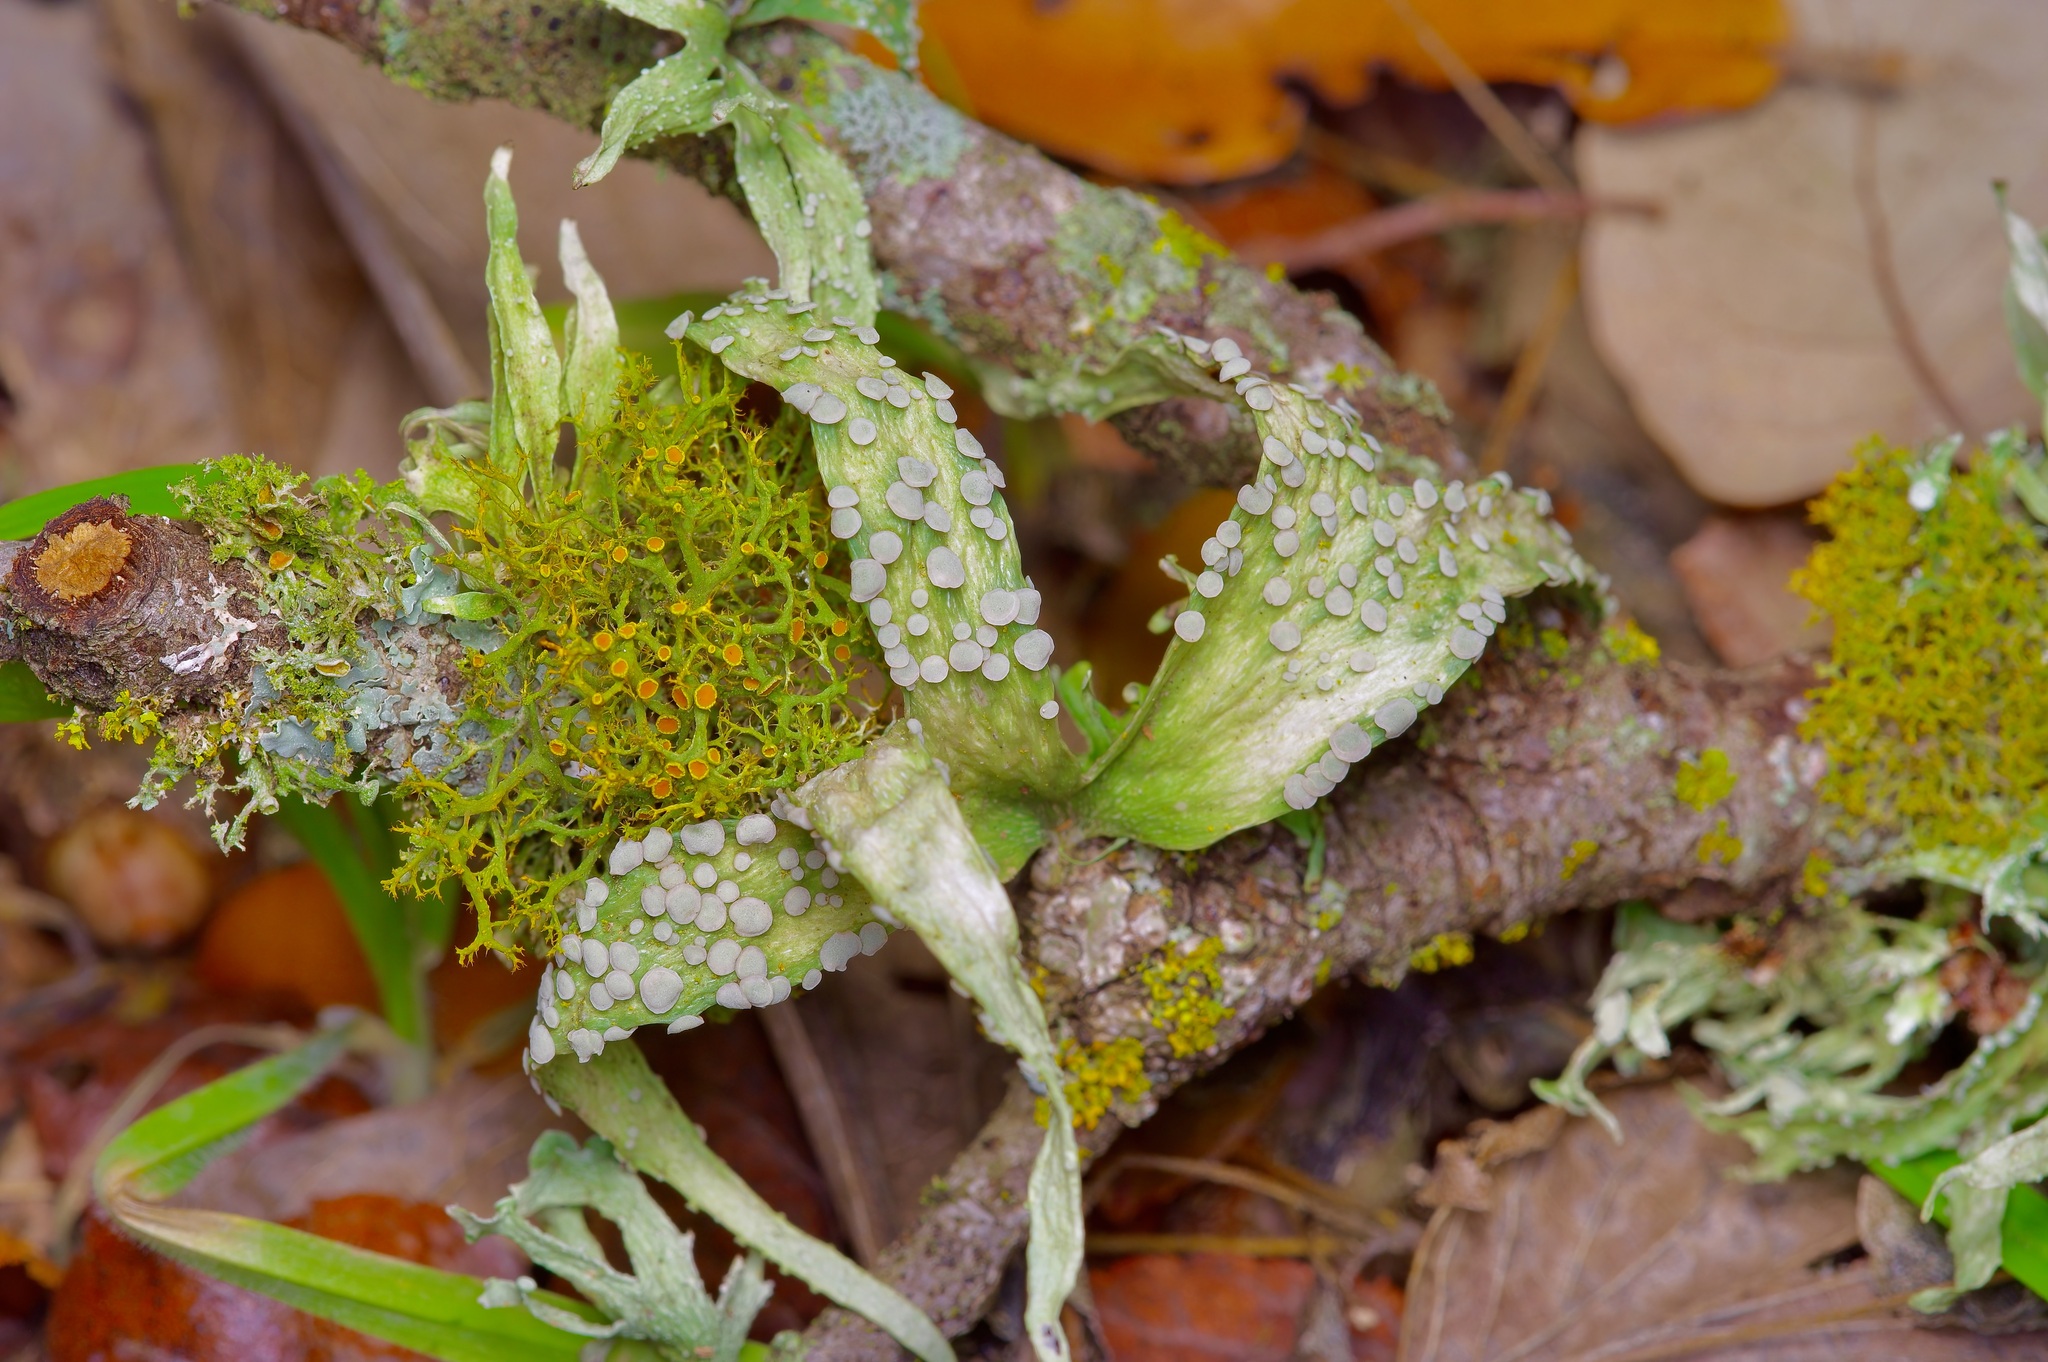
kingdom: Fungi
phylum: Ascomycota
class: Lecanoromycetes
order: Lecanorales
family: Ramalinaceae
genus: Ramalina
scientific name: Ramalina celastri
